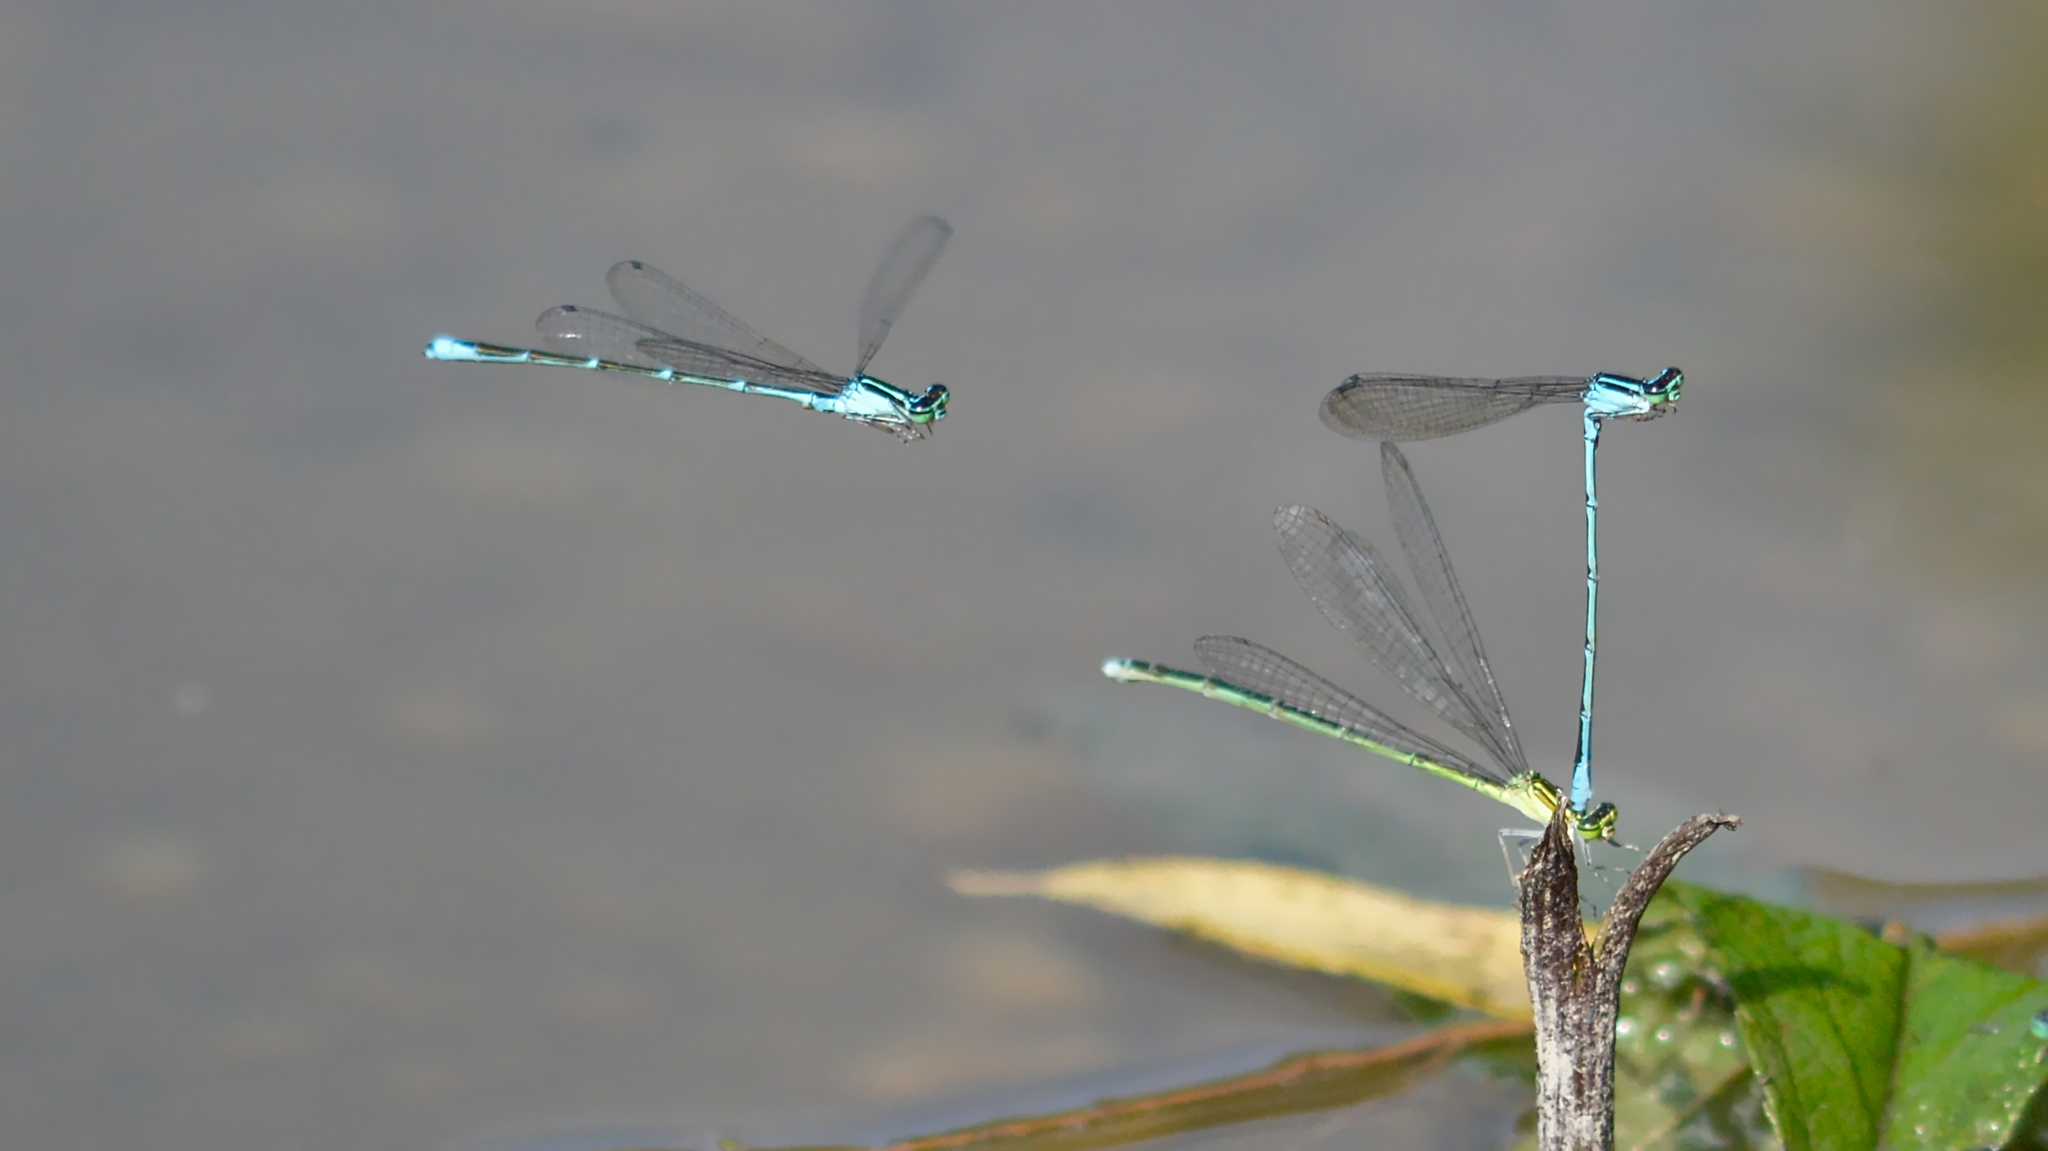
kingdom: Animalia
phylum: Arthropoda
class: Insecta
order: Odonata
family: Coenagrionidae
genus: Enallagma
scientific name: Enallagma exsulans
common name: Stream bluet
